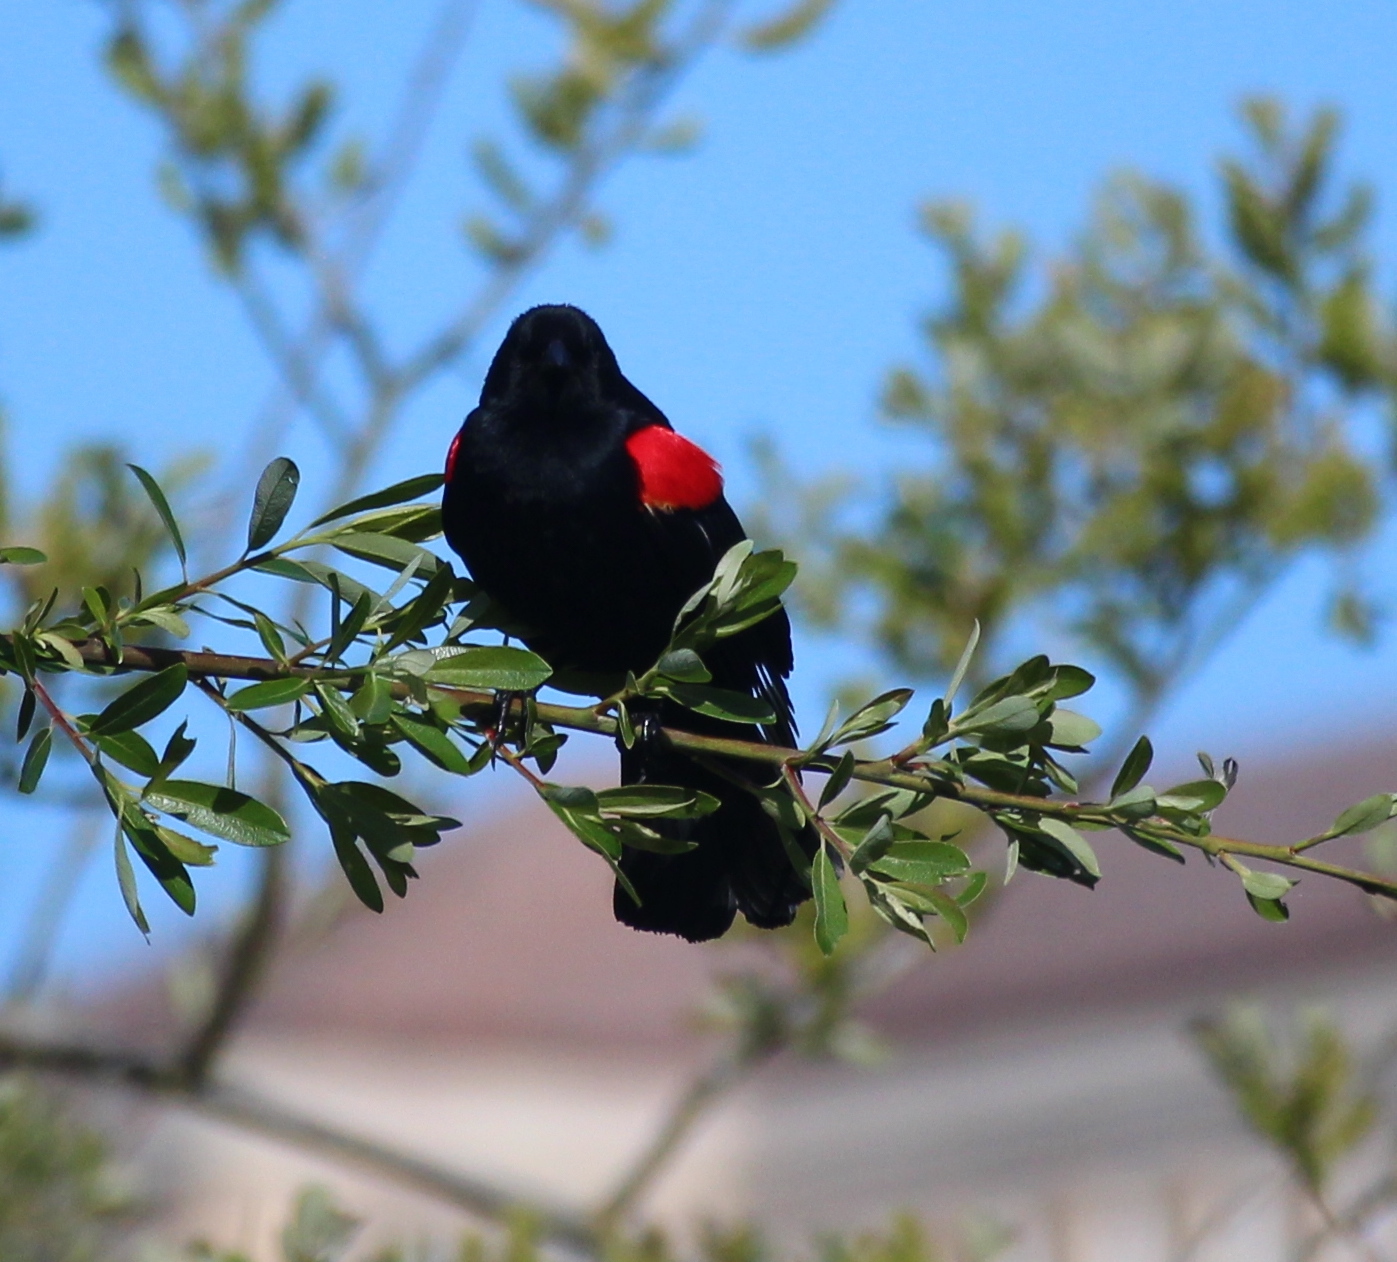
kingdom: Animalia
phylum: Chordata
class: Aves
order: Passeriformes
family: Icteridae
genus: Agelaius
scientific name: Agelaius phoeniceus
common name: Red-winged blackbird
